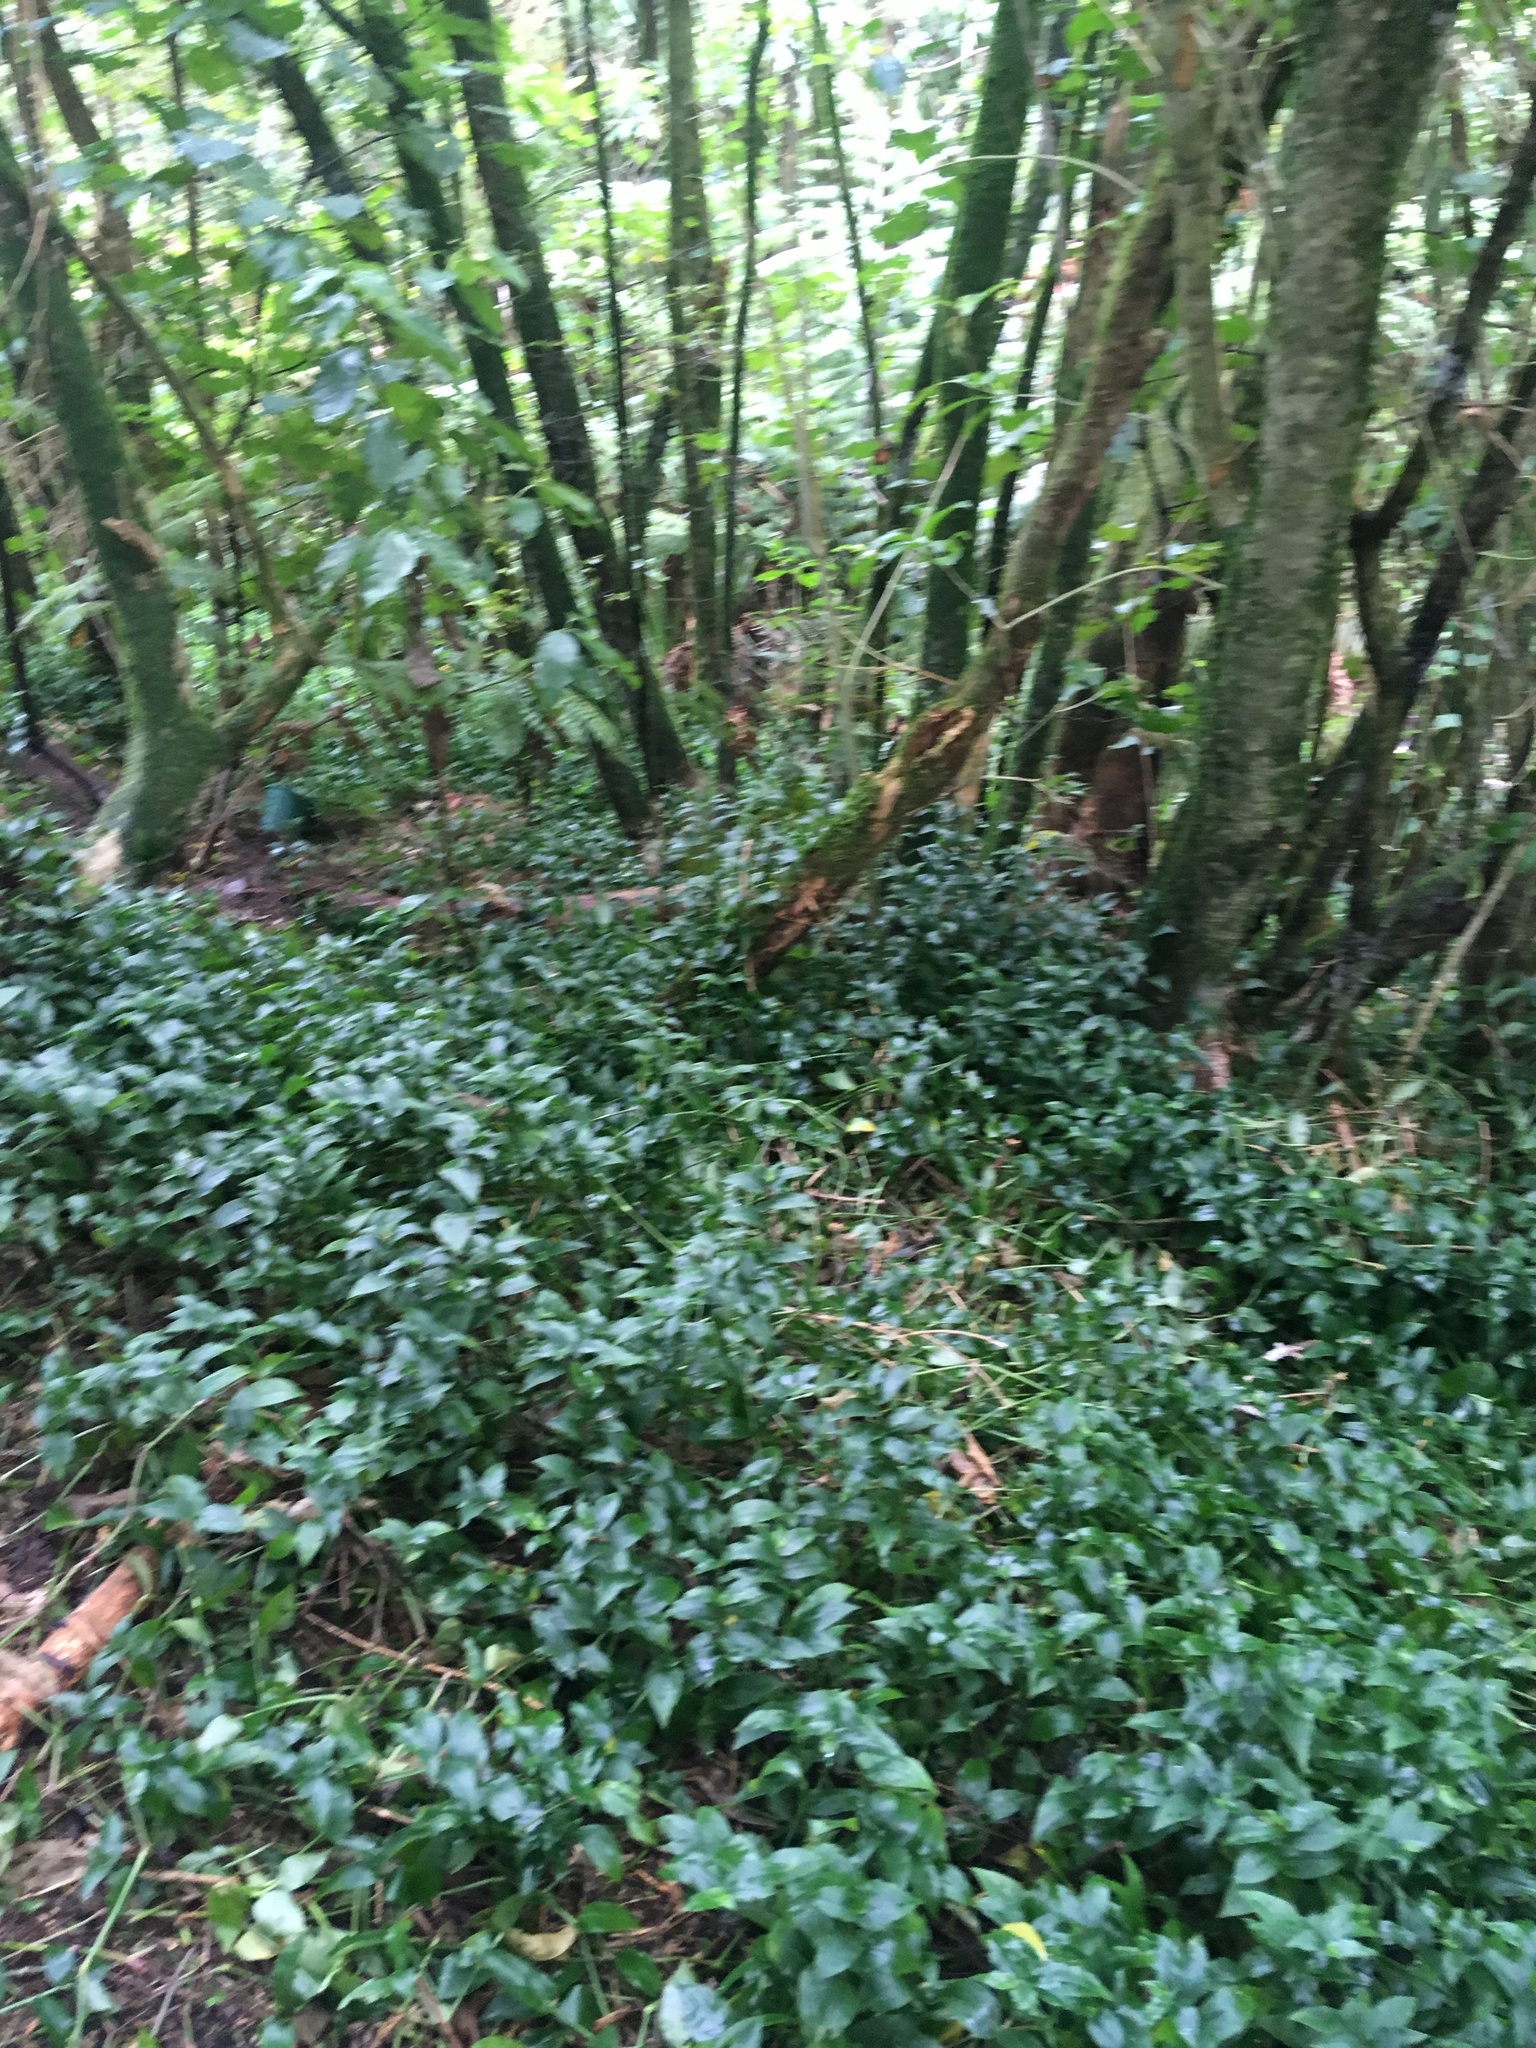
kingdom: Plantae
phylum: Tracheophyta
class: Liliopsida
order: Commelinales
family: Commelinaceae
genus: Tradescantia
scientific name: Tradescantia fluminensis
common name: Wandering-jew
